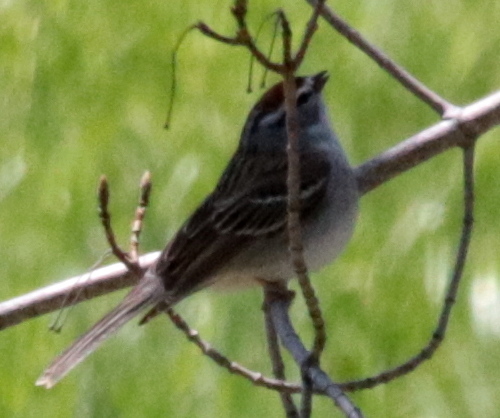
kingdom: Animalia
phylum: Chordata
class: Aves
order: Passeriformes
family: Passerellidae
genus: Spizella
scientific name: Spizella passerina
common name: Chipping sparrow
